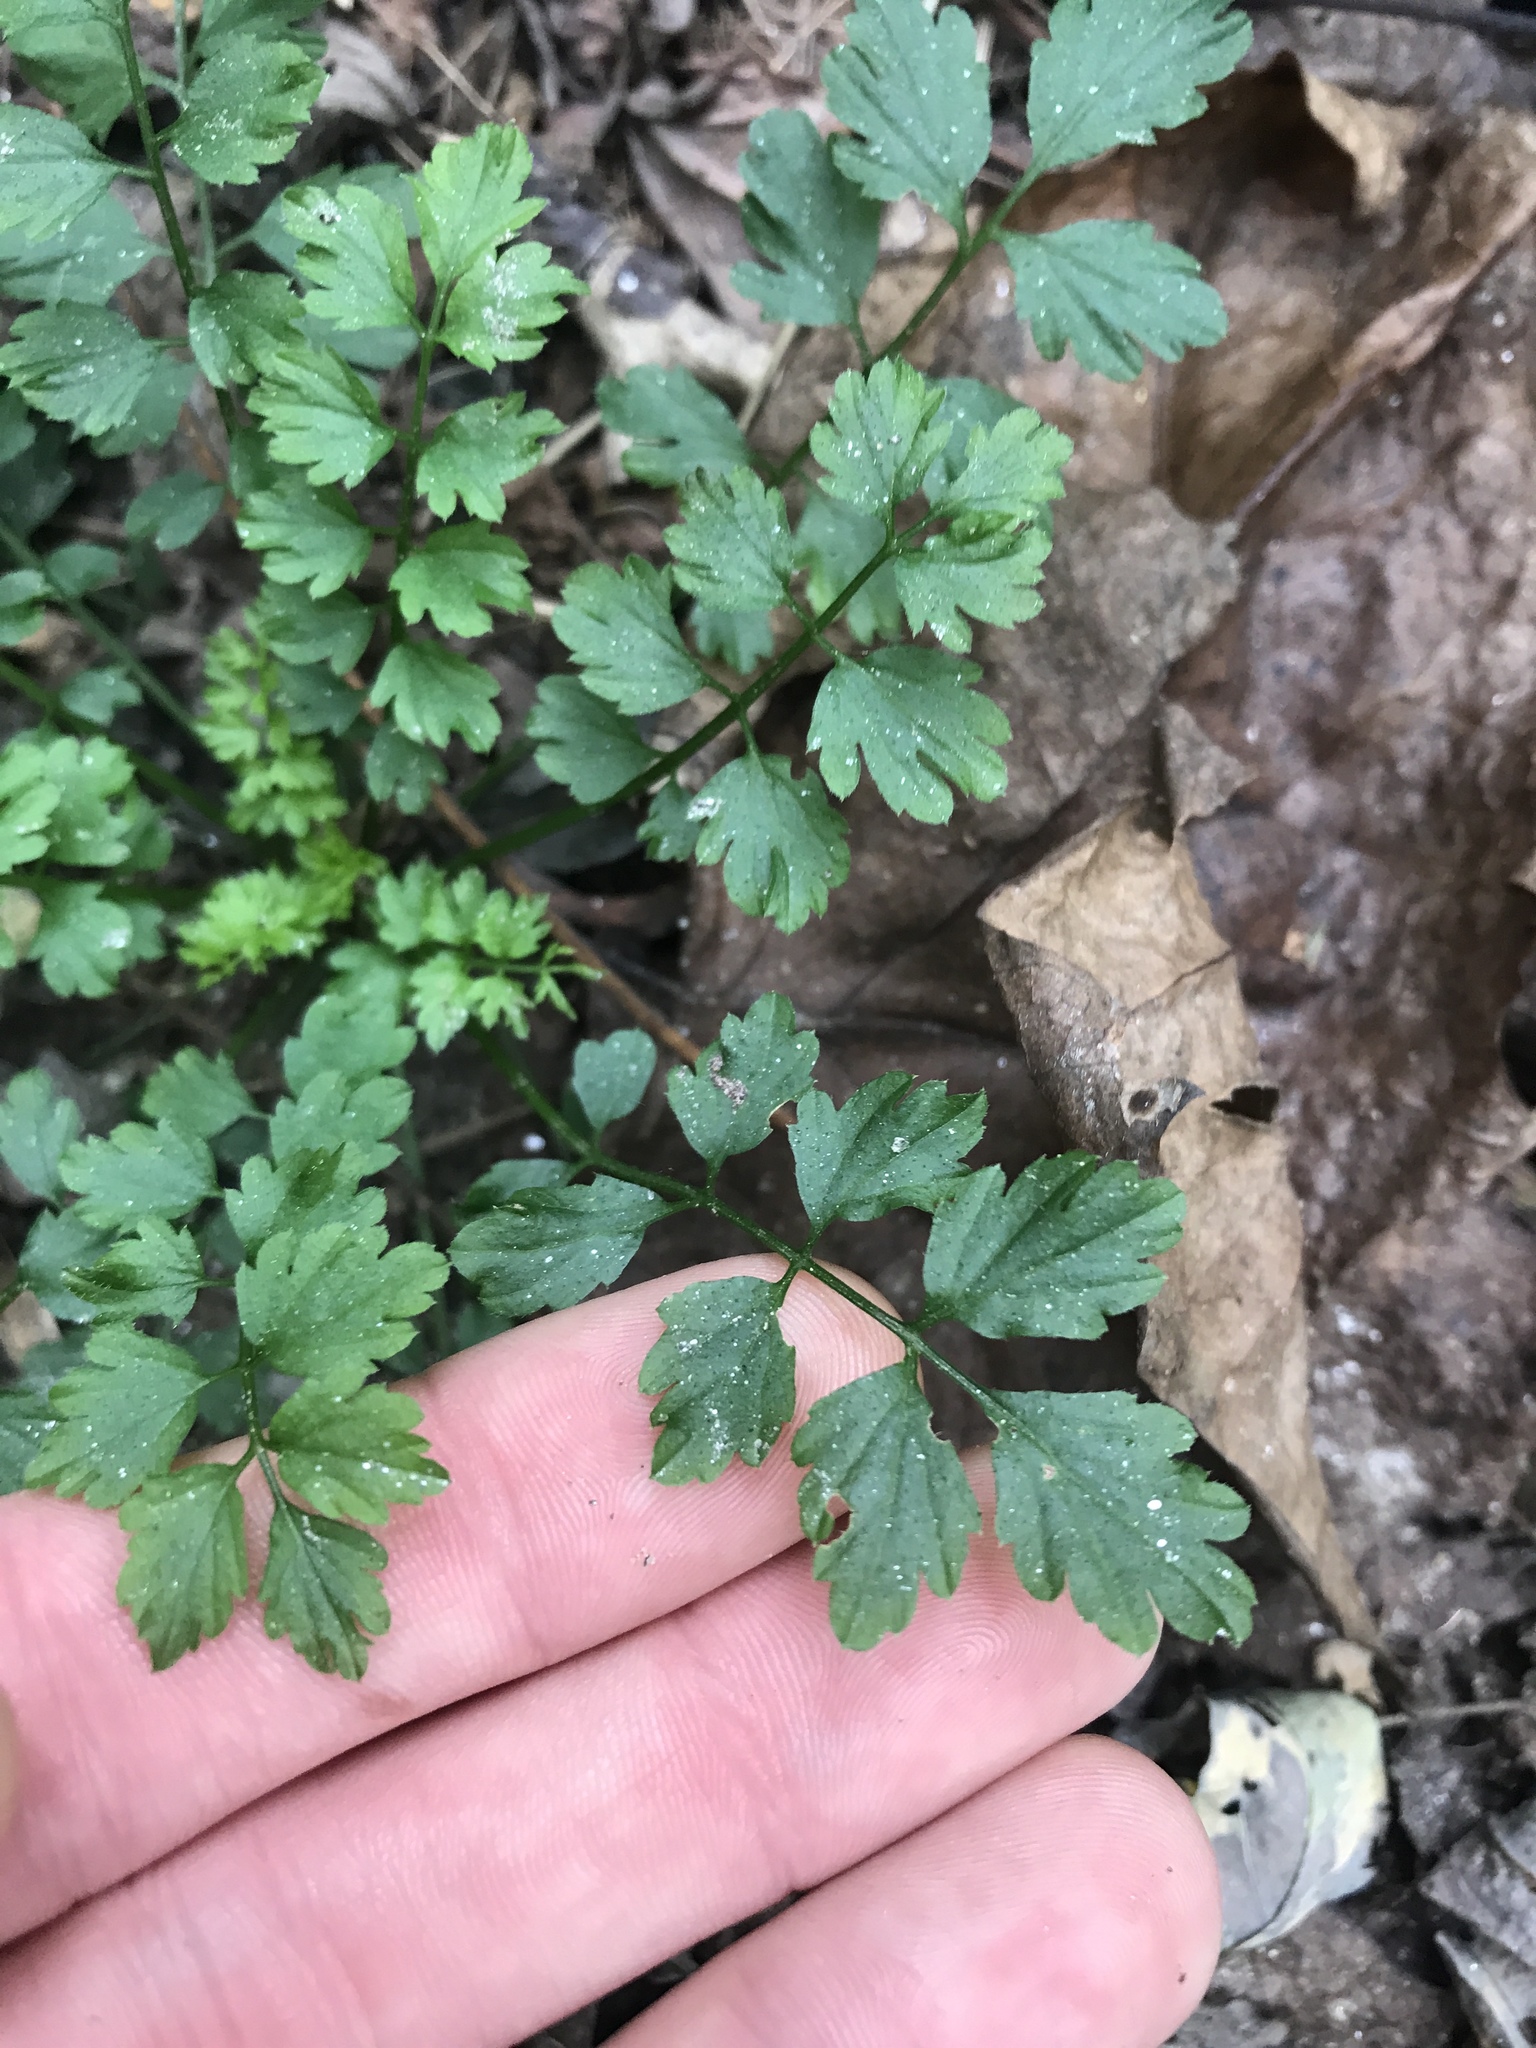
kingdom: Plantae
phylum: Tracheophyta
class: Magnoliopsida
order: Brassicales
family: Brassicaceae
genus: Cardamine
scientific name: Cardamine impatiens
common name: Narrow-leaved bitter-cress
